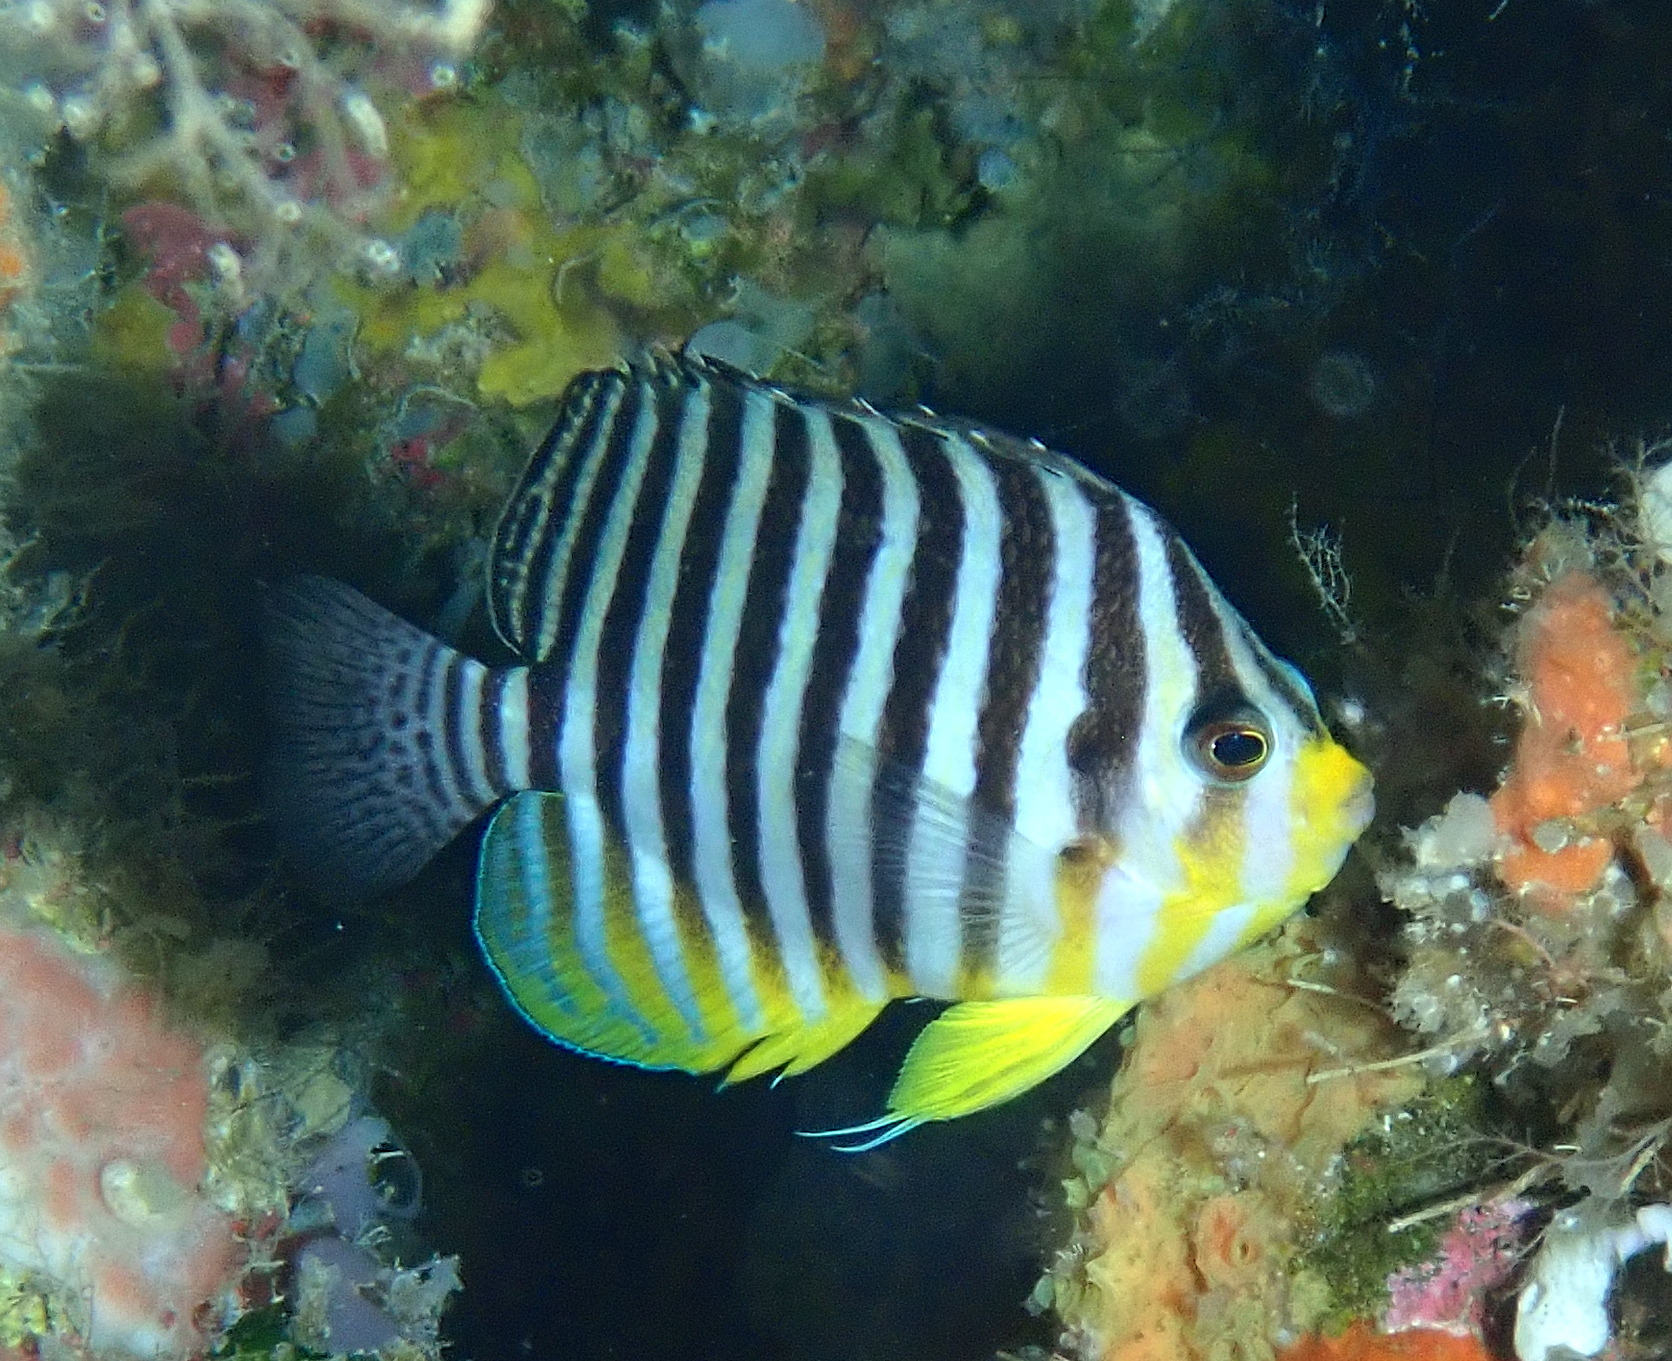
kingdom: Animalia
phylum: Chordata
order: Perciformes
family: Pomacanthidae
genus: Paracentropyge
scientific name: Paracentropyge multifasciata
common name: Barred angelfish
